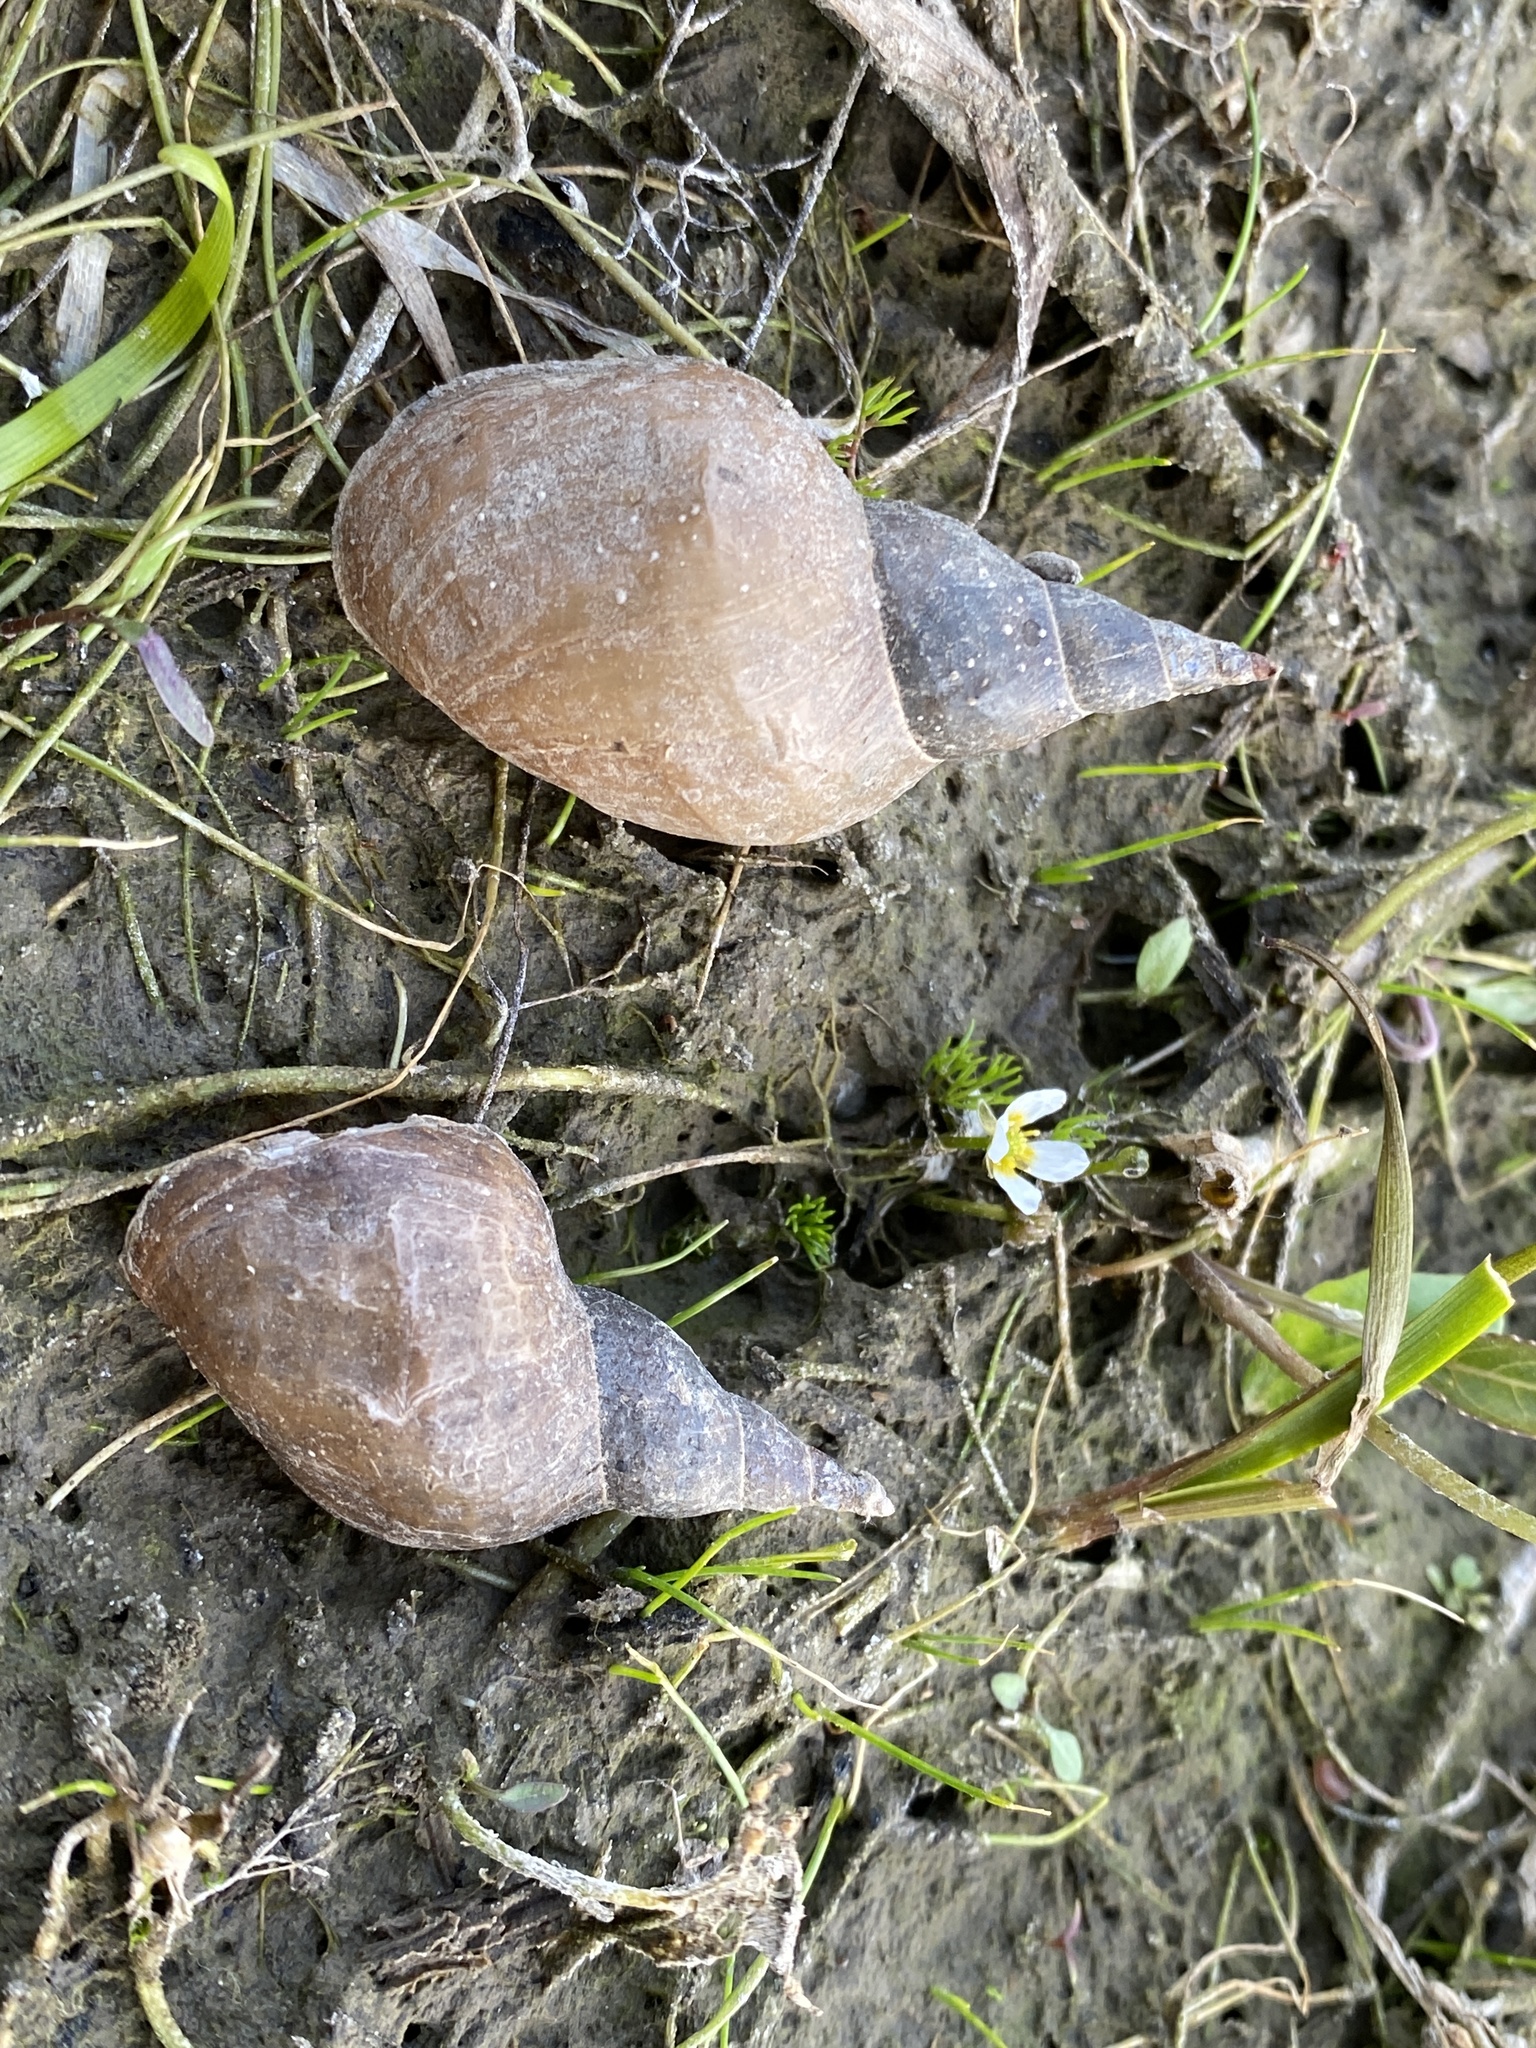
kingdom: Animalia
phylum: Mollusca
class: Gastropoda
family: Lymnaeidae
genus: Lymnaea
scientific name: Lymnaea stagnalis
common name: Great pond snail
